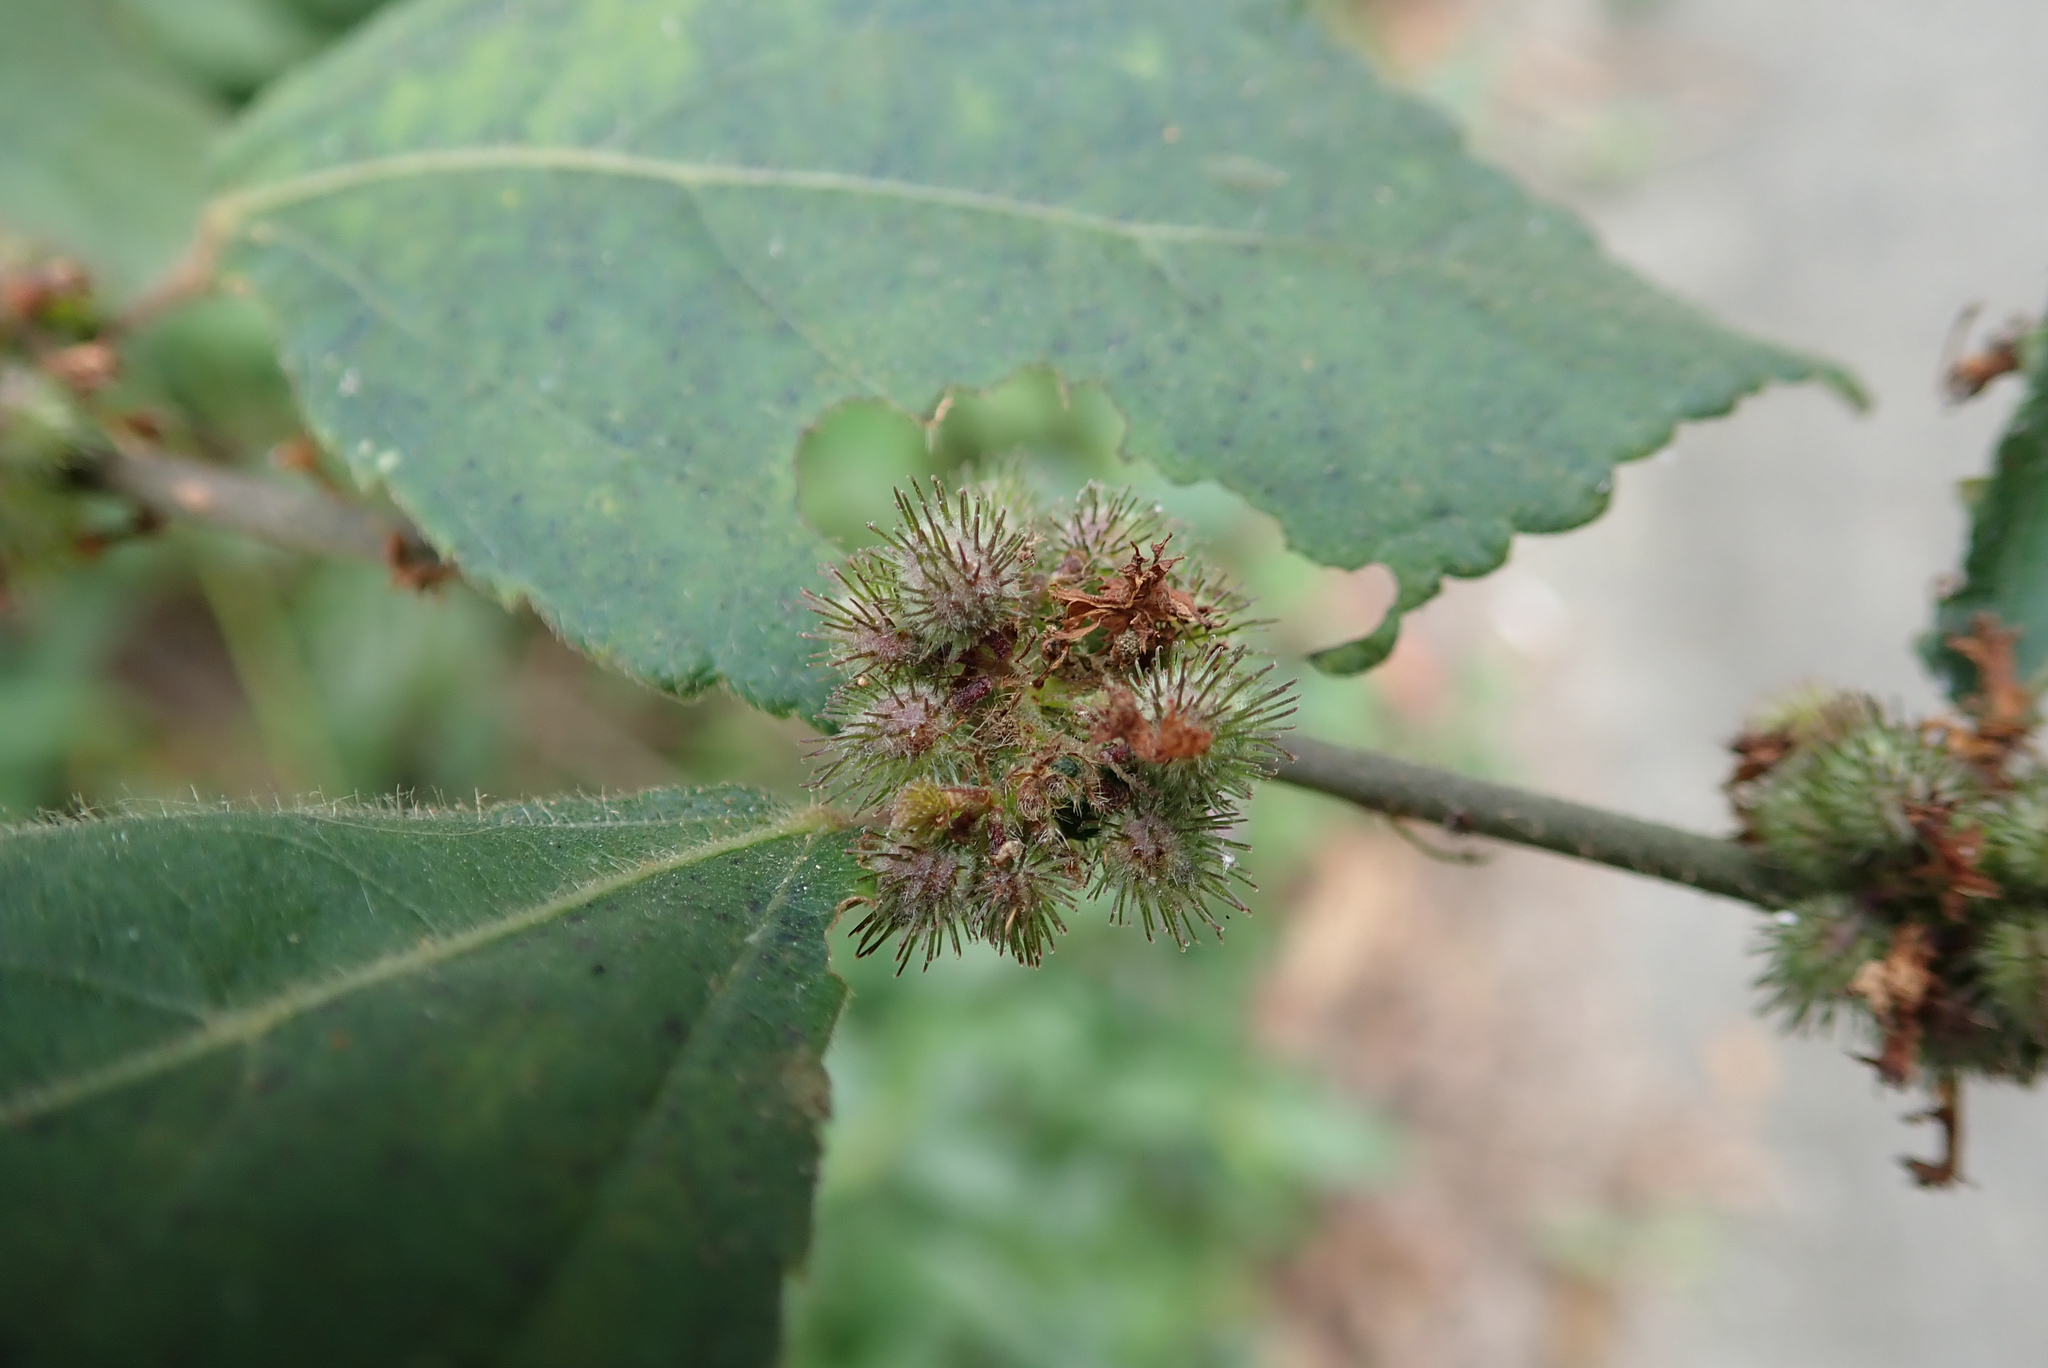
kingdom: Plantae
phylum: Tracheophyta
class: Magnoliopsida
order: Malvales
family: Malvaceae
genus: Triumfetta
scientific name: Triumfetta rhomboidea
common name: Diamond burbark
